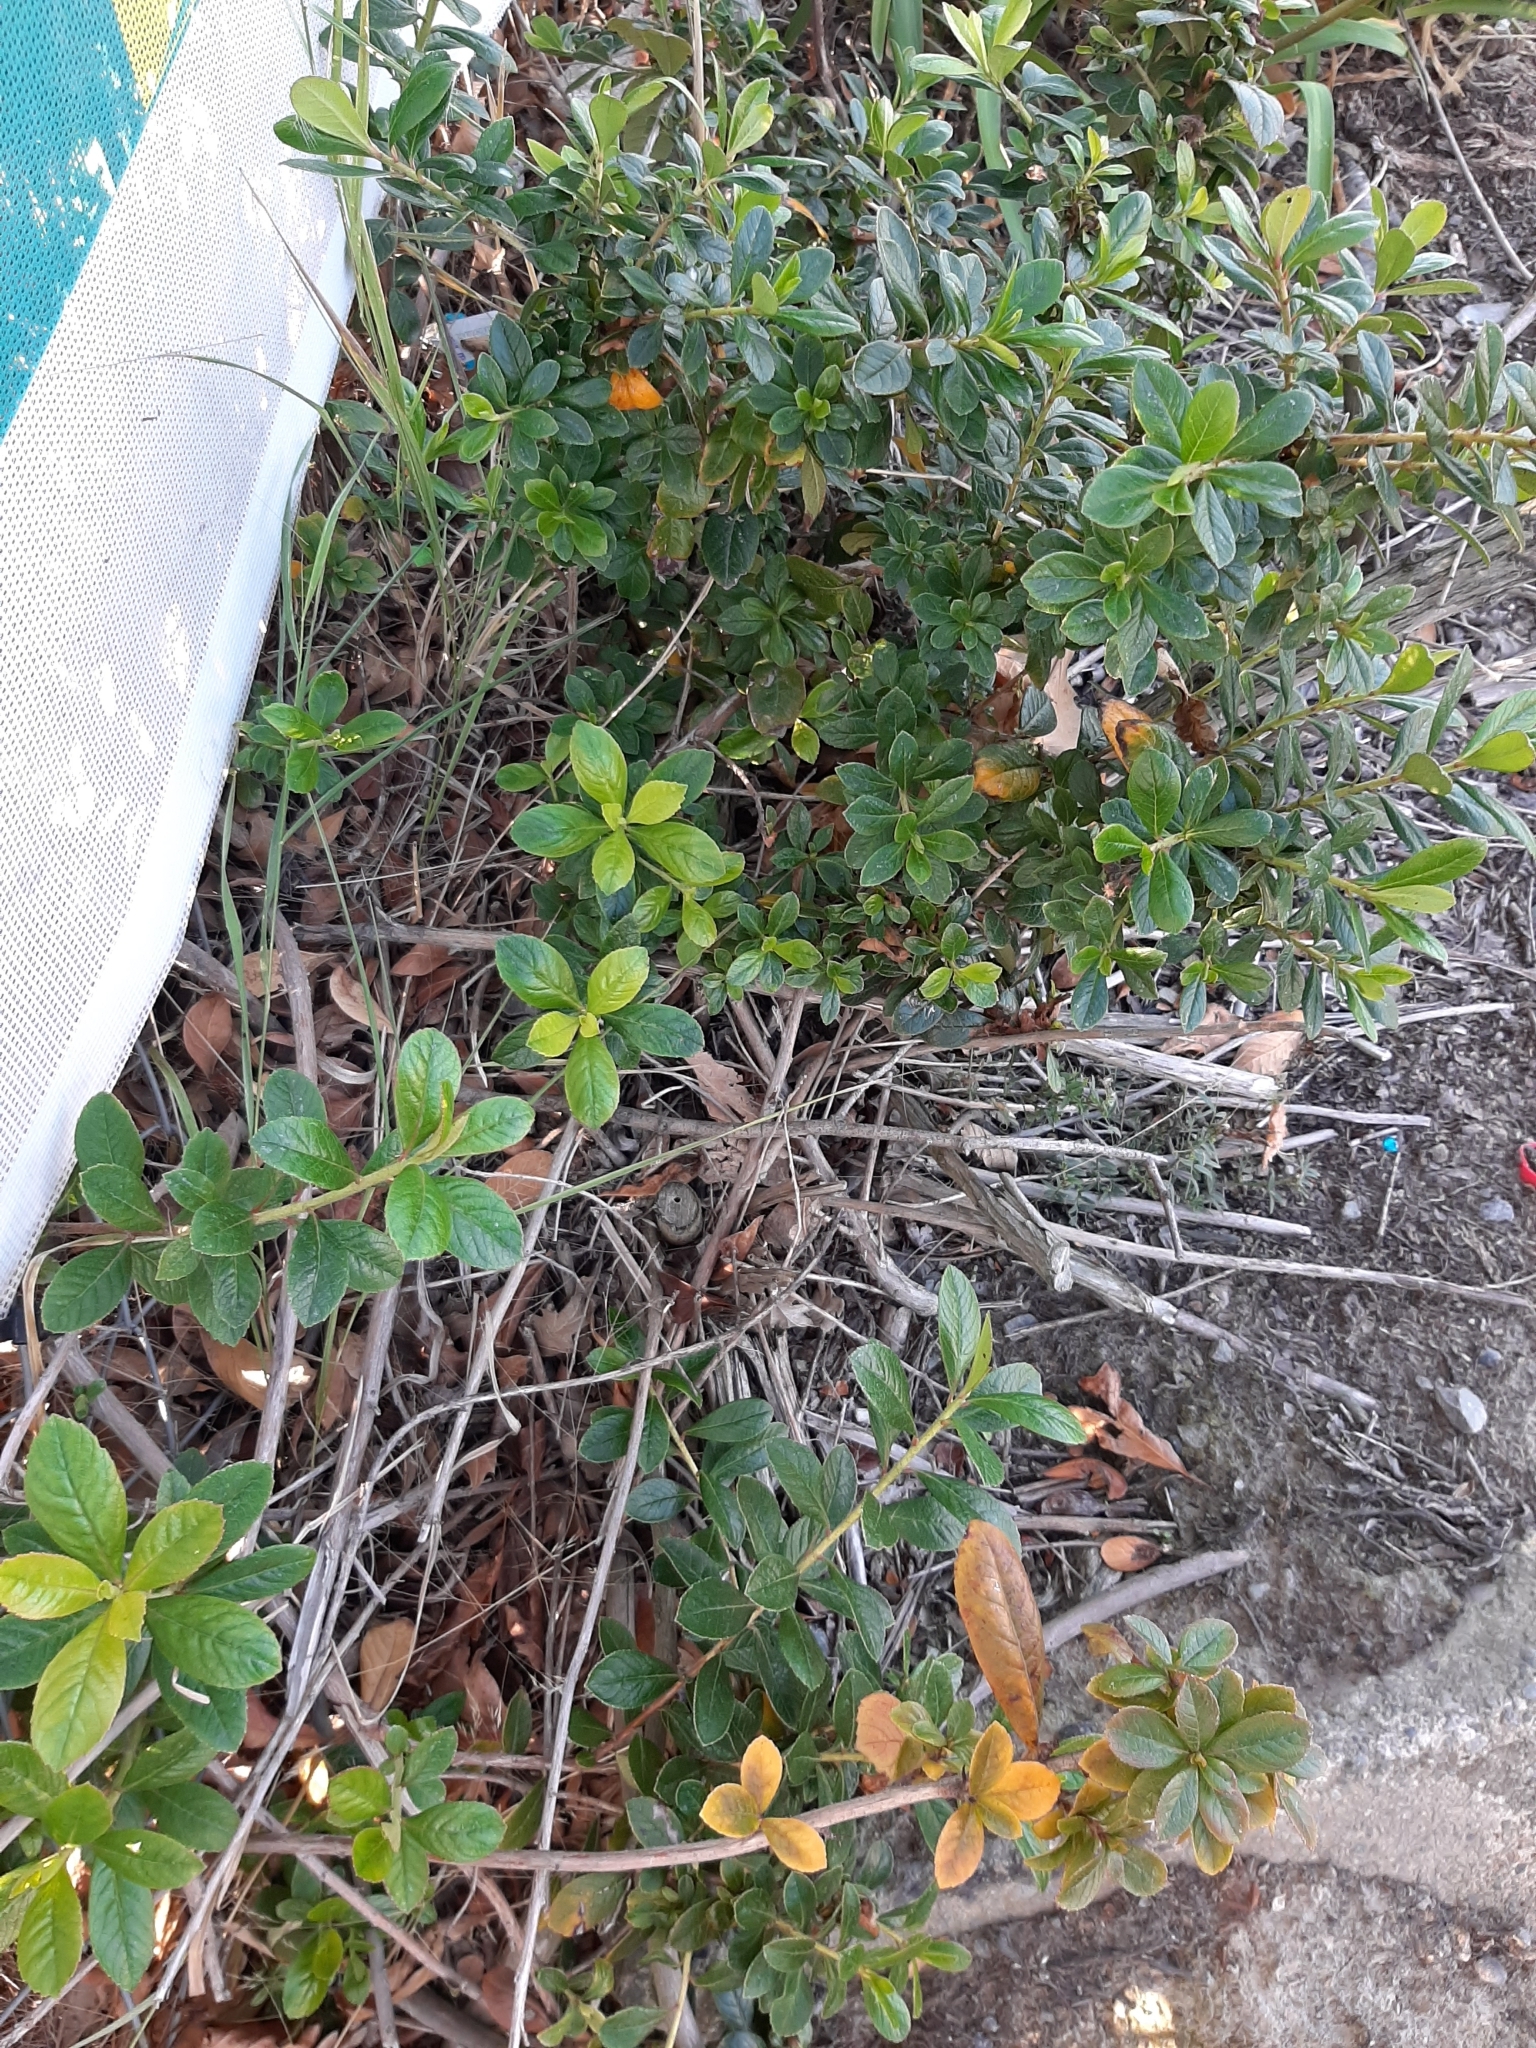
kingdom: Plantae
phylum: Tracheophyta
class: Magnoliopsida
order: Escalloniales
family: Escalloniaceae
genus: Escallonia
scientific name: Escallonia rubra
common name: Redclaws
